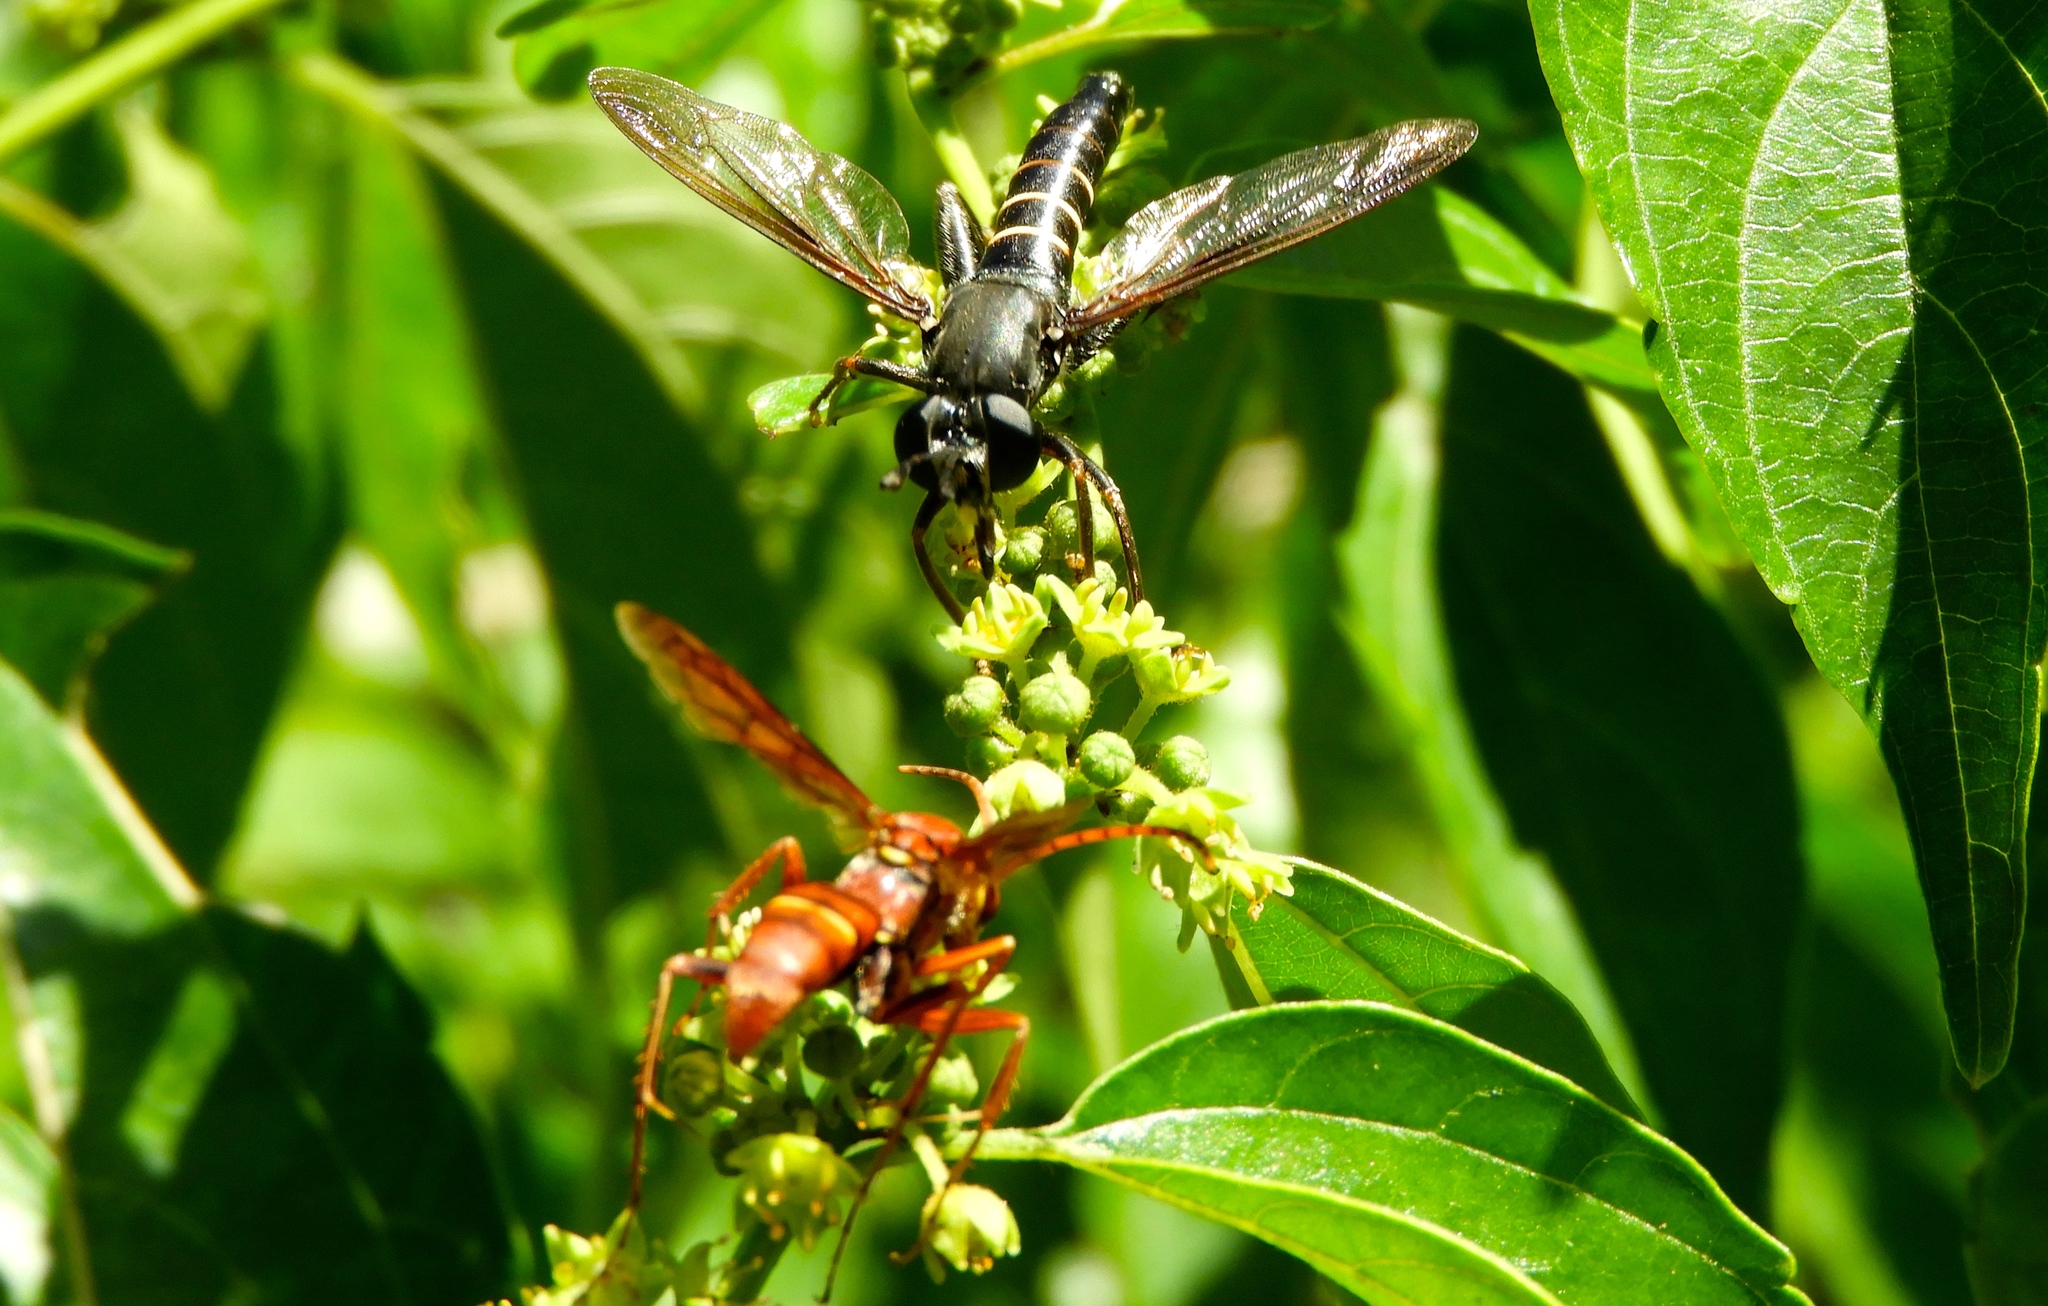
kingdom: Animalia
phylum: Arthropoda
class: Insecta
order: Hymenoptera
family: Pompilidae
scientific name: Pompilidae
